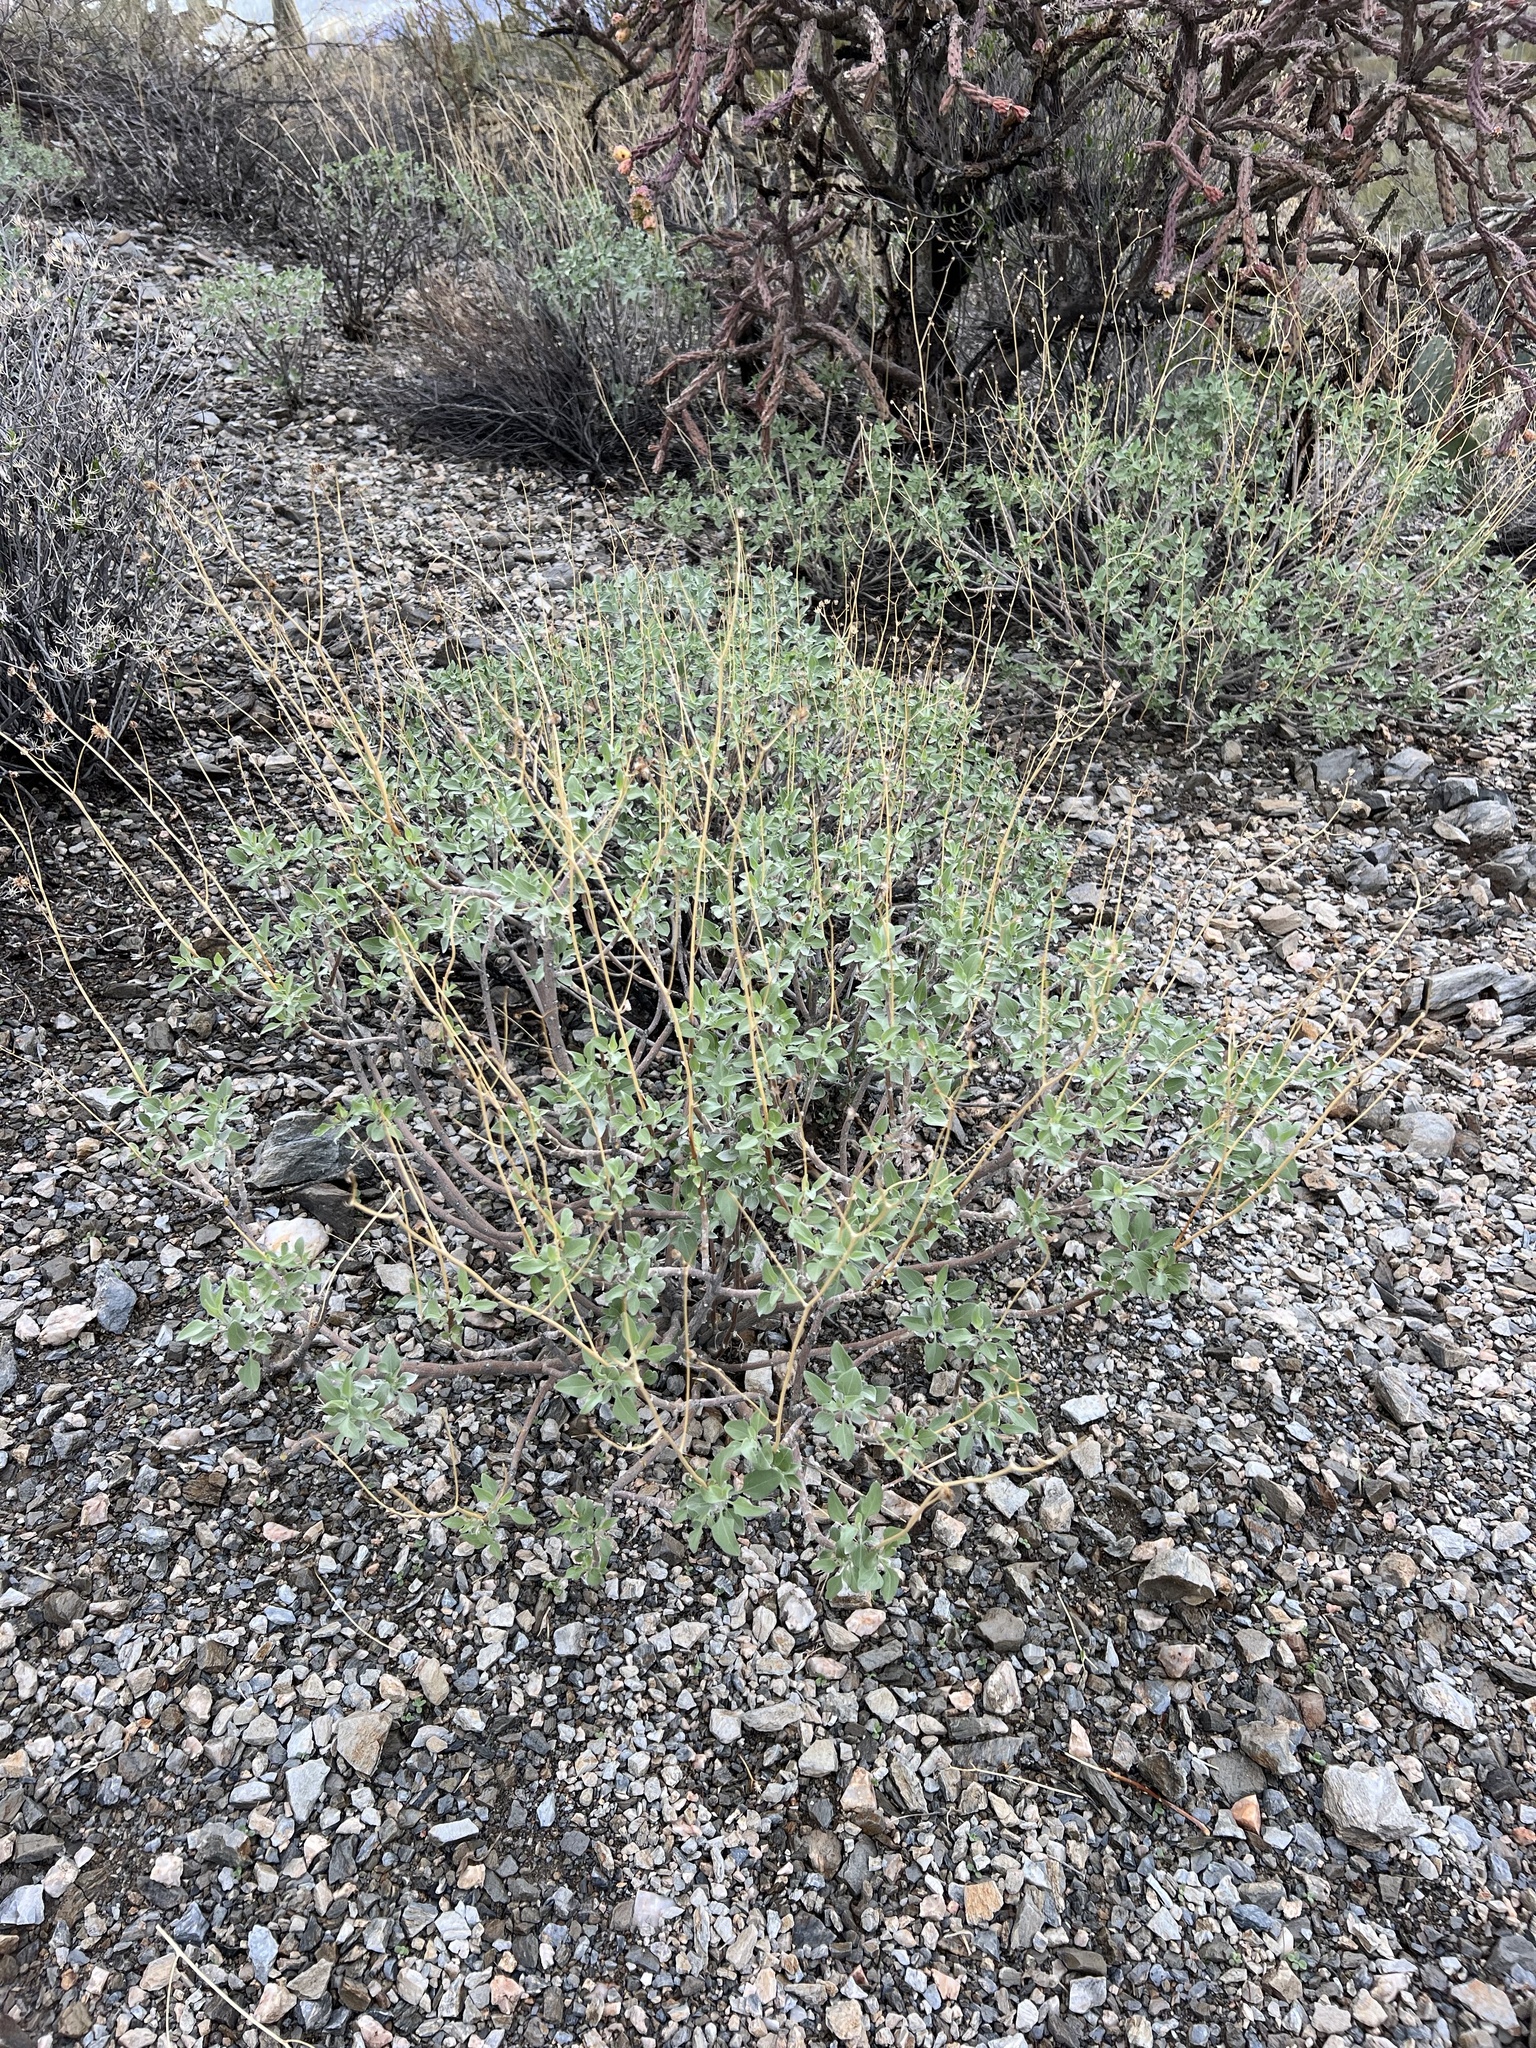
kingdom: Plantae
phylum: Tracheophyta
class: Magnoliopsida
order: Asterales
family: Asteraceae
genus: Encelia
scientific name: Encelia farinosa
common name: Brittlebush
